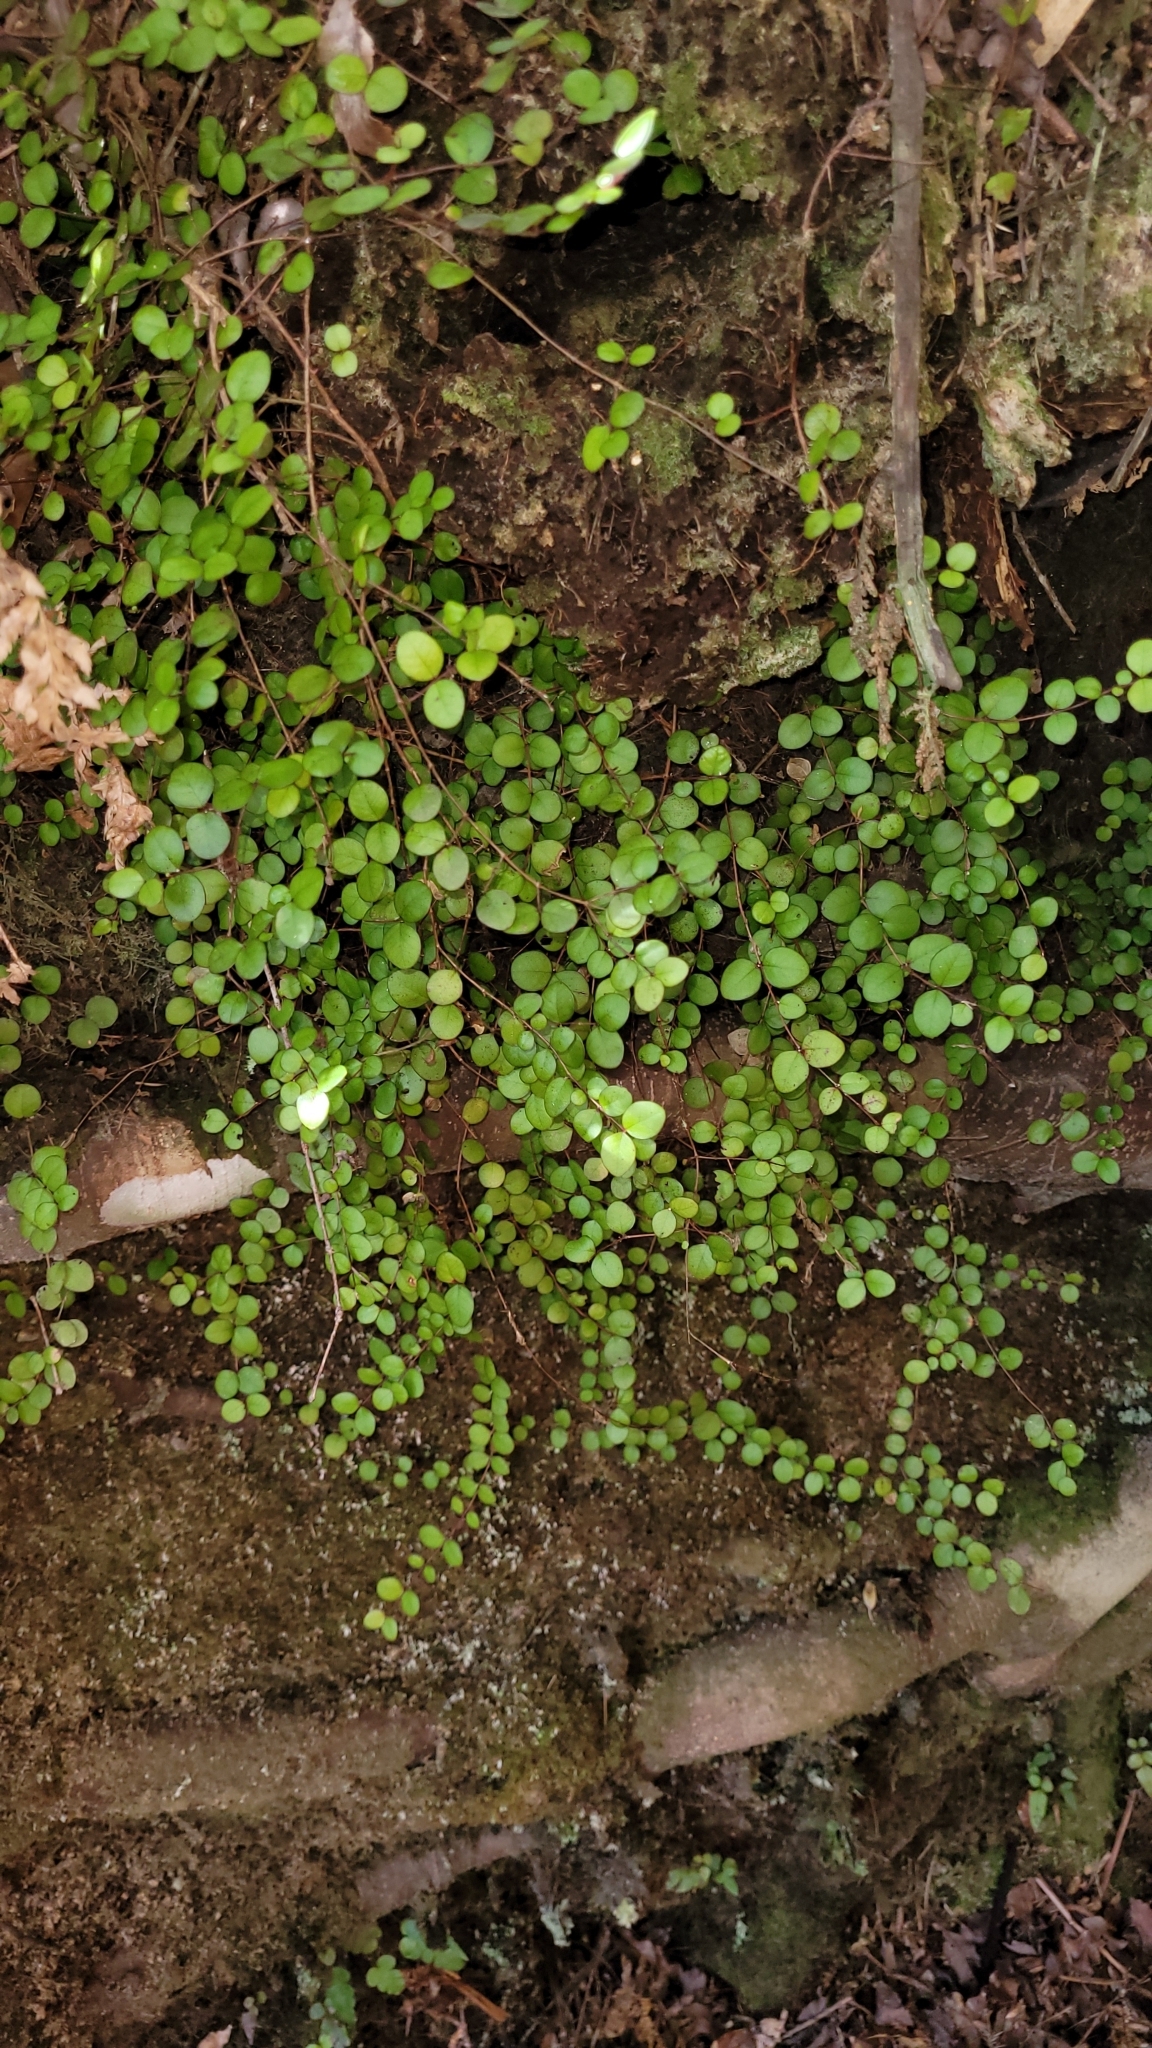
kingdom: Plantae
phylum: Tracheophyta
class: Magnoliopsida
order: Myrtales
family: Myrtaceae
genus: Metrosideros
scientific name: Metrosideros perforata
